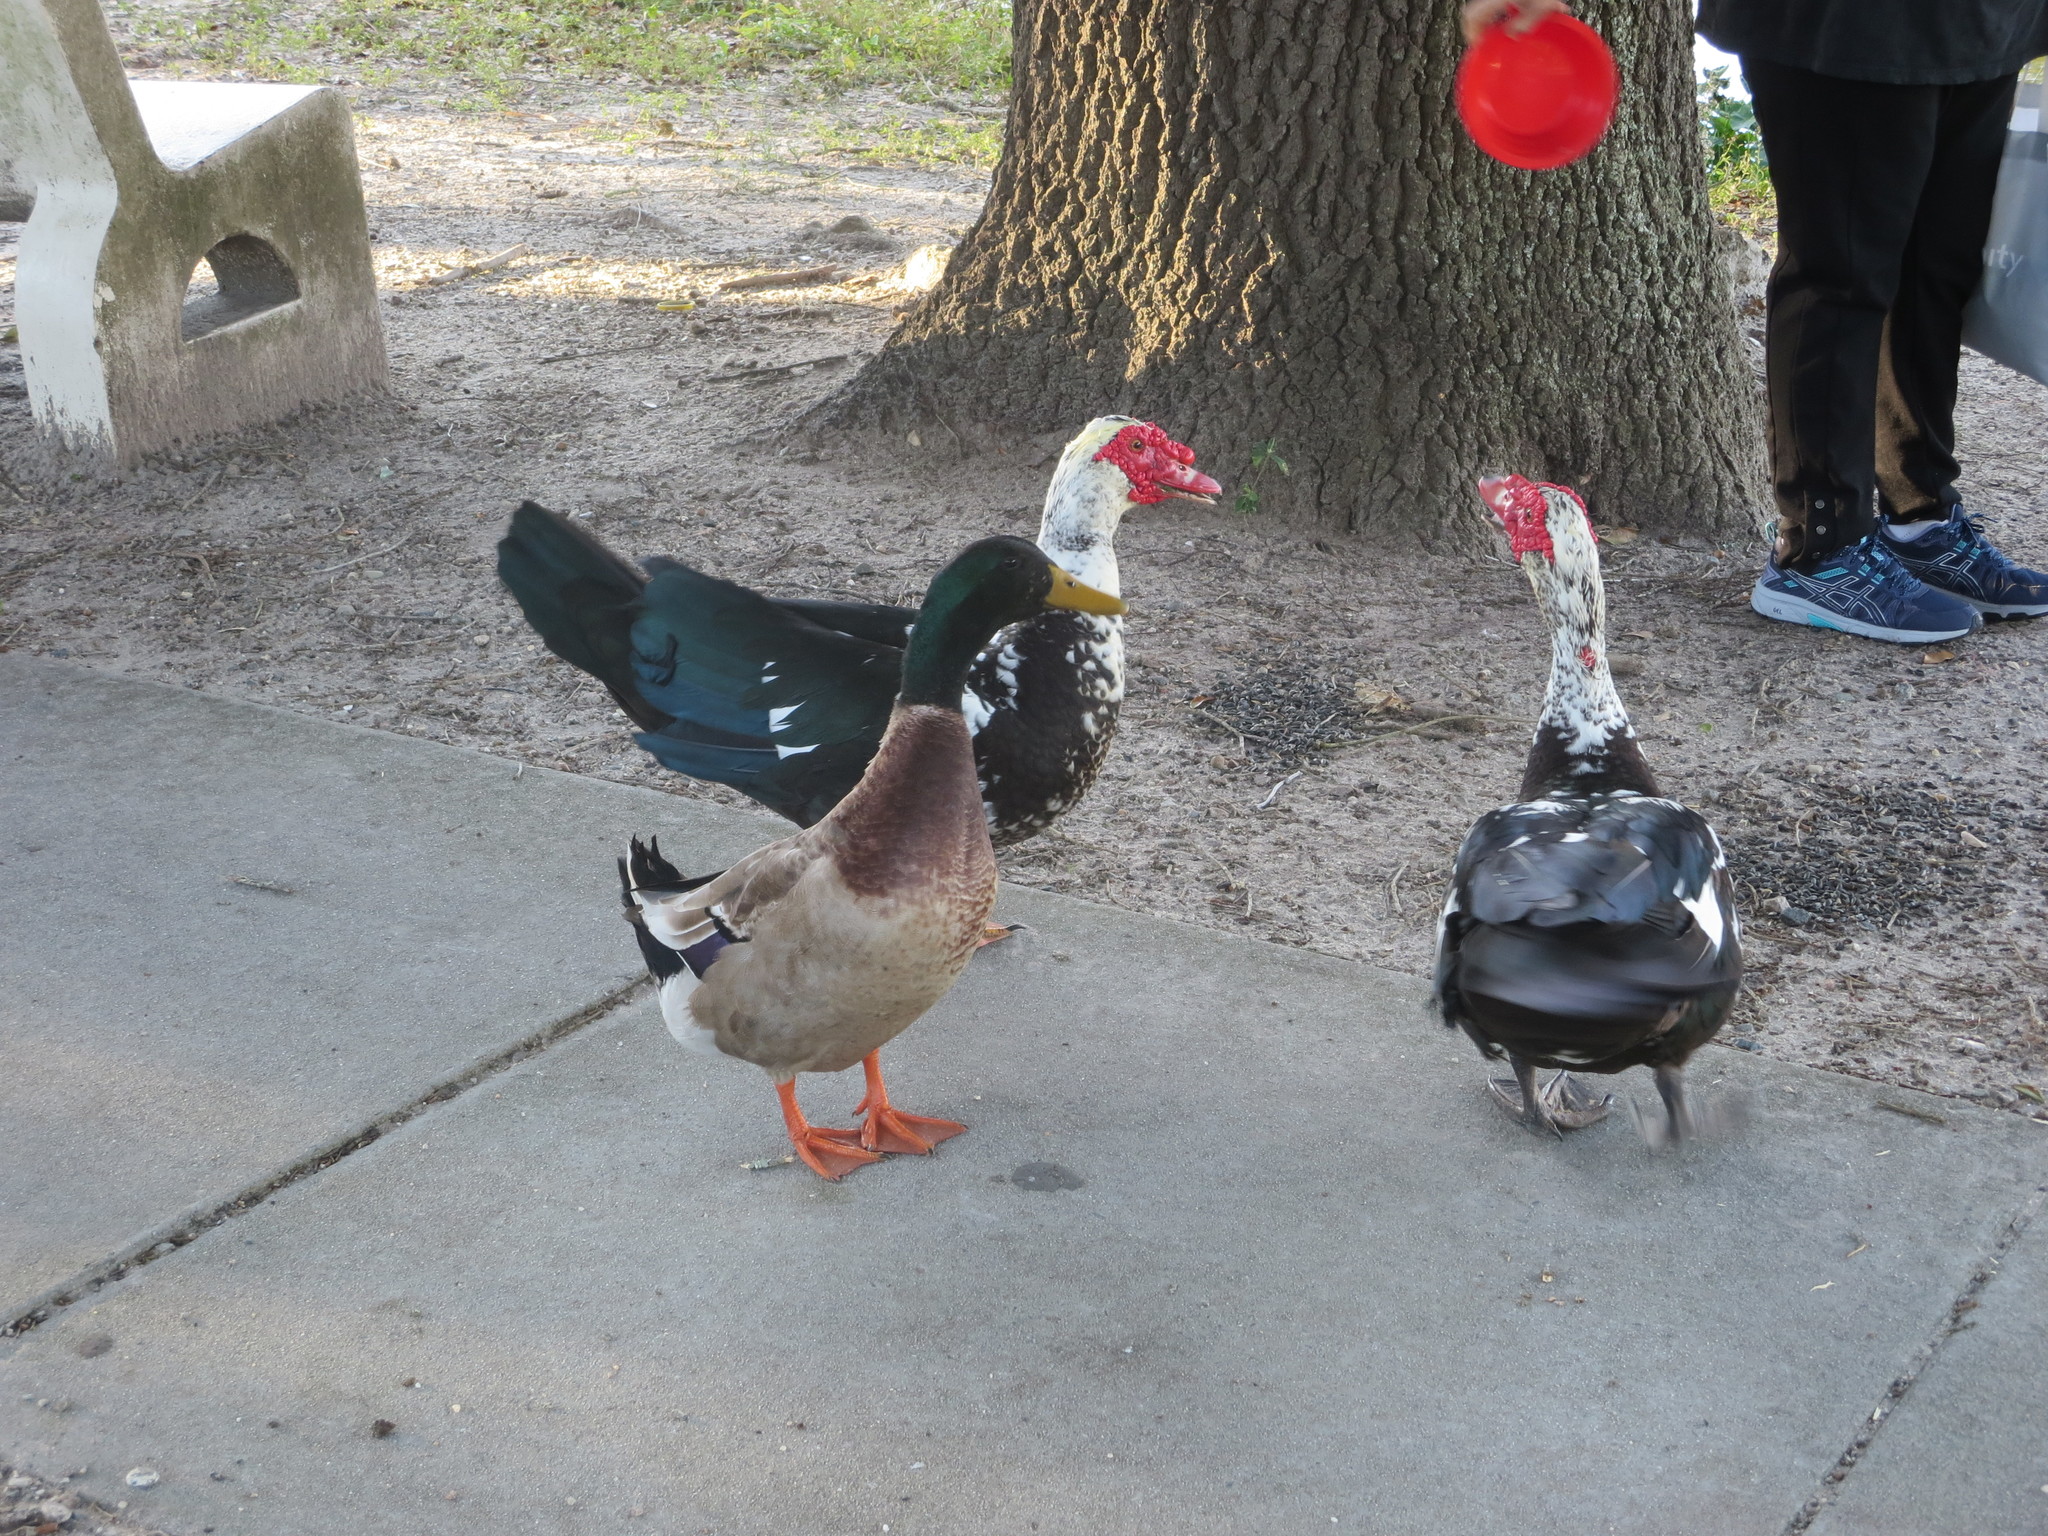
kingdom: Animalia
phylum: Chordata
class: Aves
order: Anseriformes
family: Anatidae
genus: Cairina
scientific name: Cairina moschata
